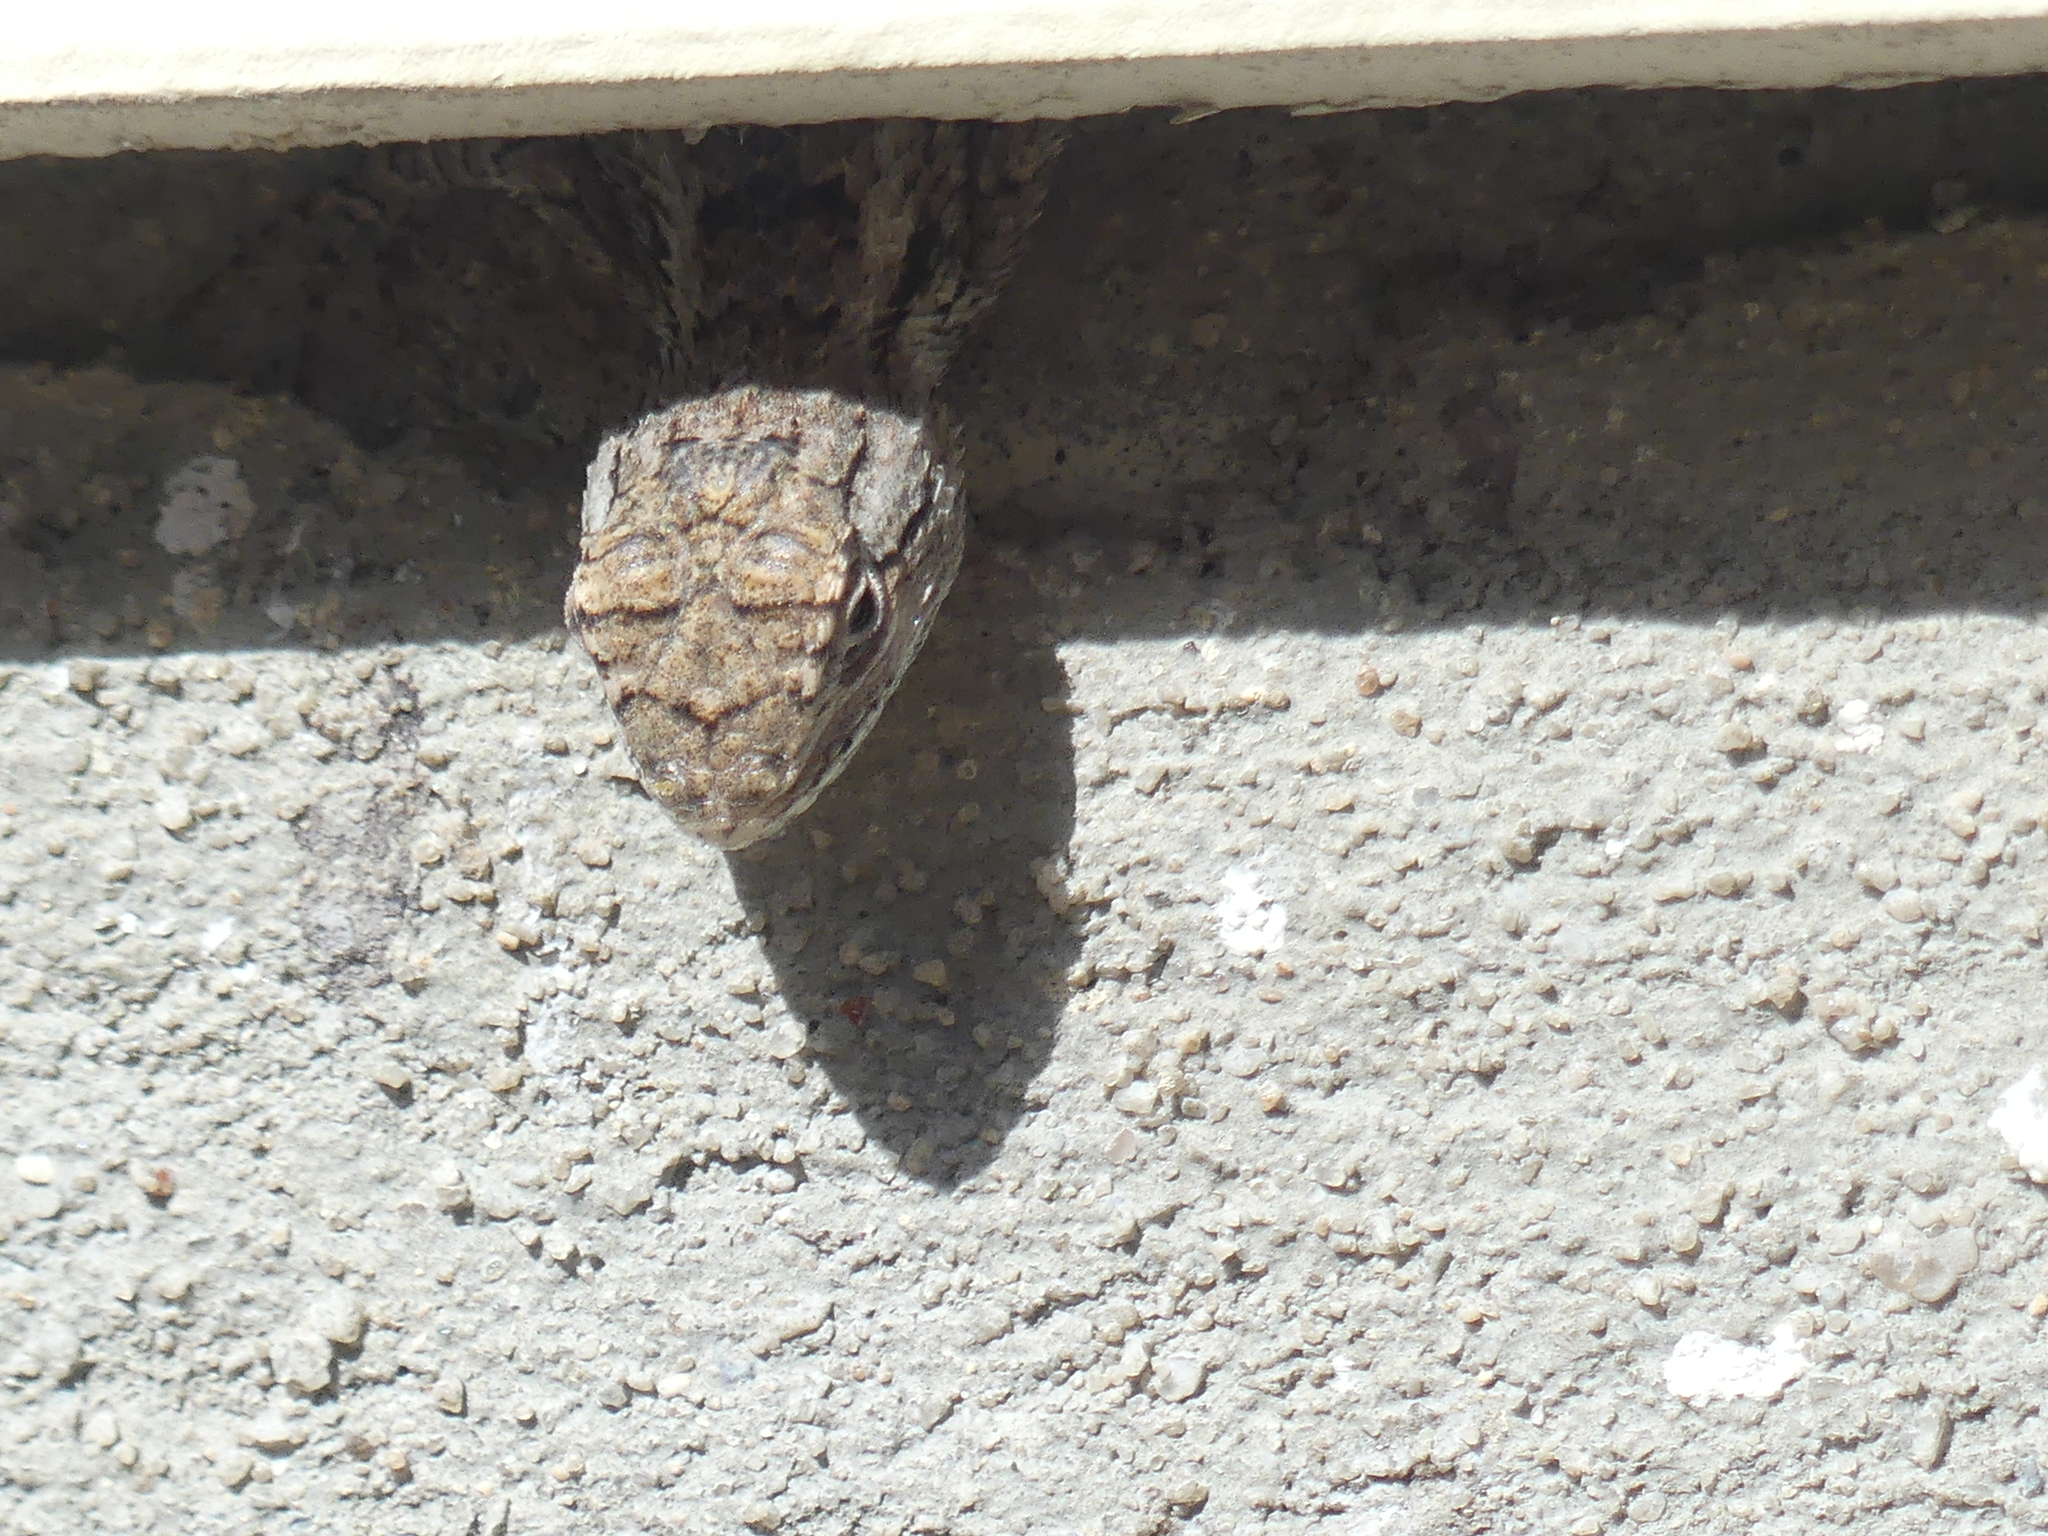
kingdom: Animalia
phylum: Chordata
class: Squamata
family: Phrynosomatidae
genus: Sceloporus
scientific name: Sceloporus olivaceus
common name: Texas spiny lizard
